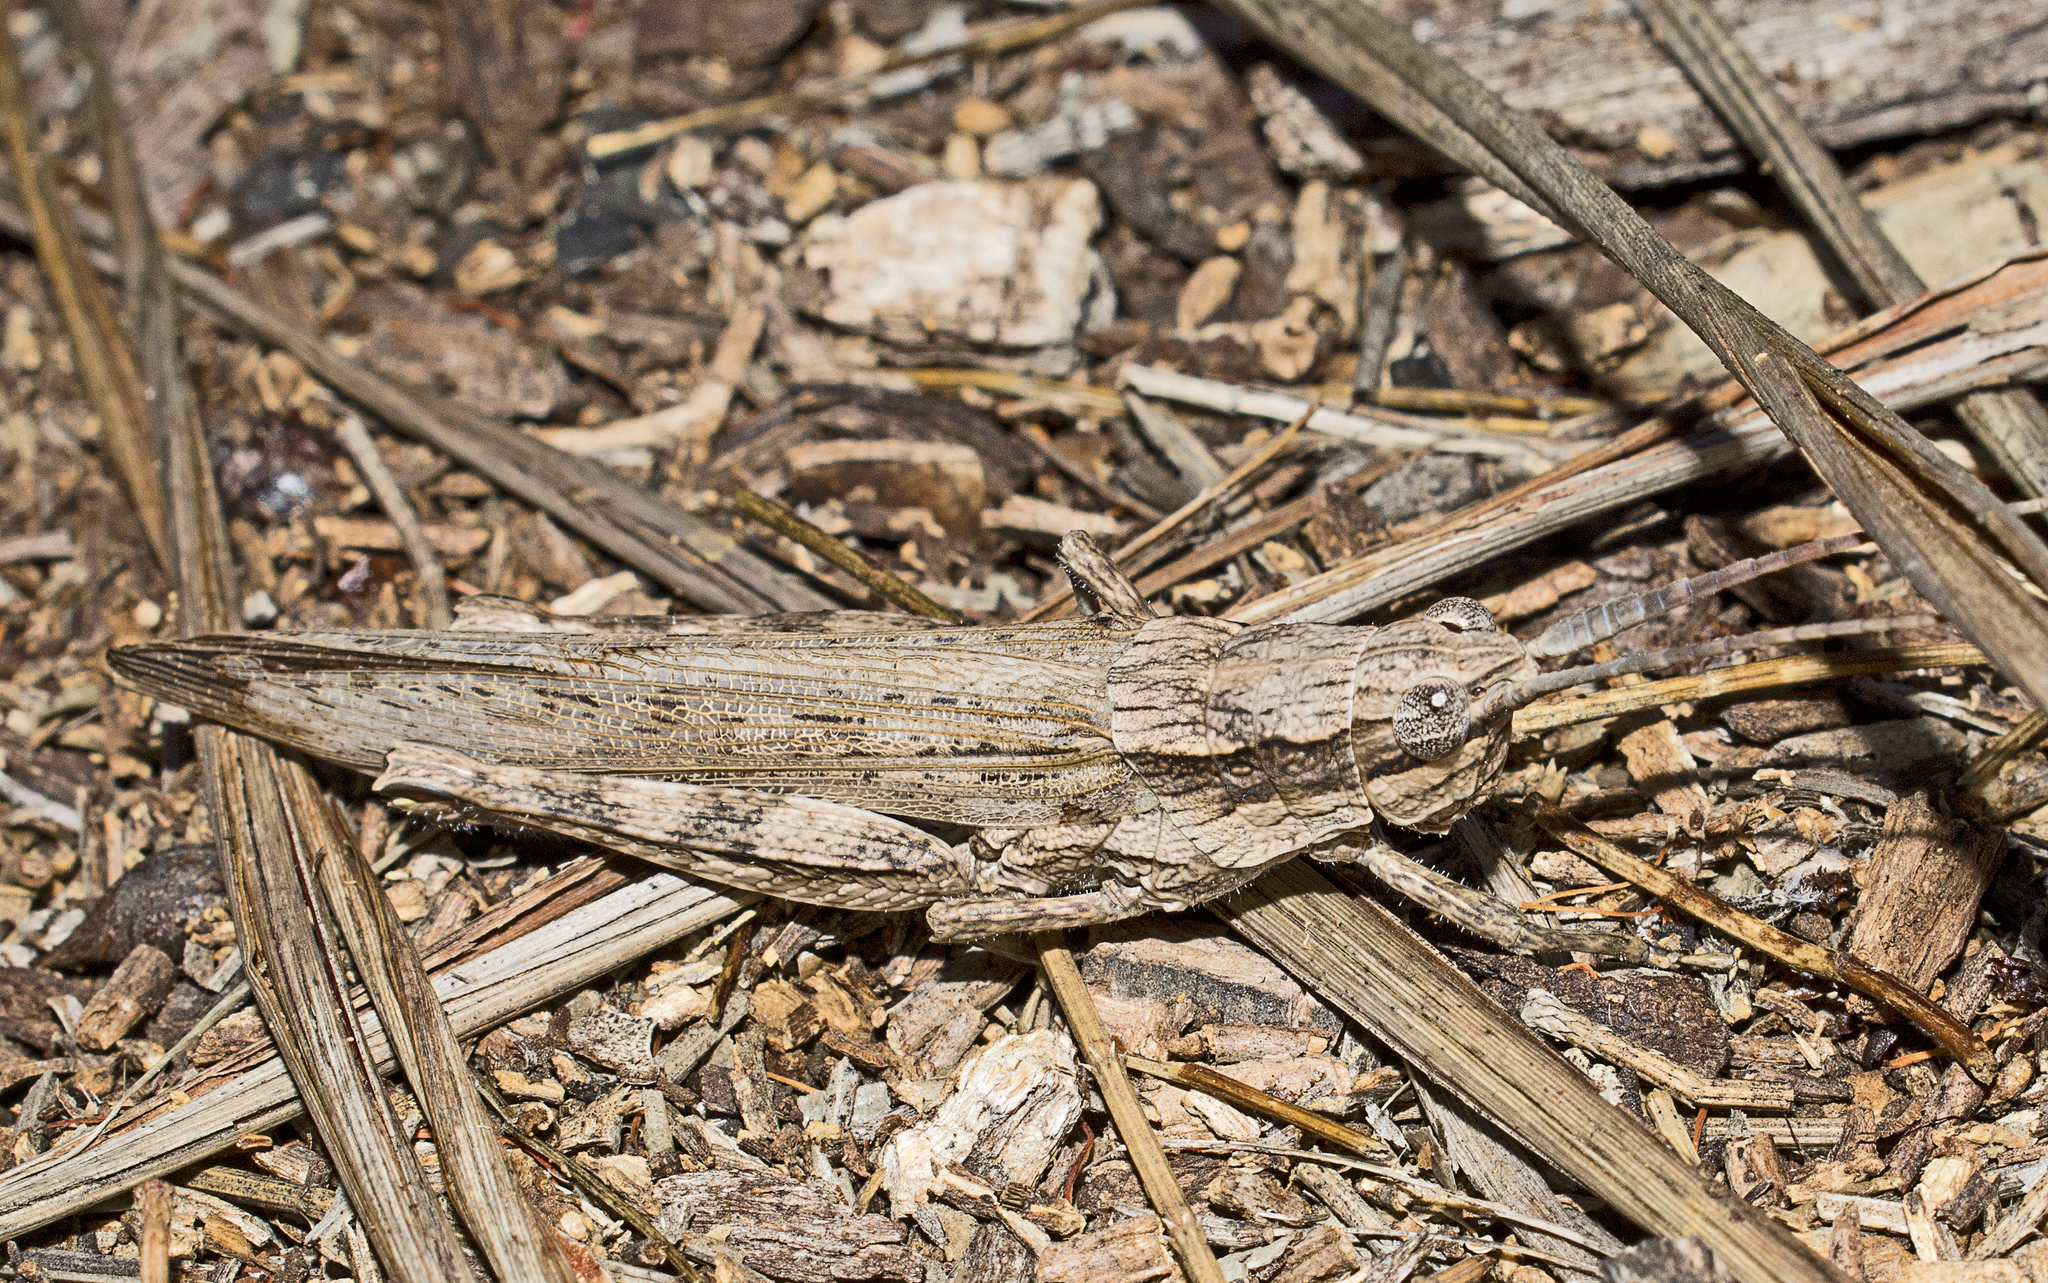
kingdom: Animalia
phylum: Arthropoda
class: Insecta
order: Orthoptera
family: Acrididae
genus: Coryphistes
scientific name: Coryphistes ruricola
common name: Bark-mimicking grasshopper
